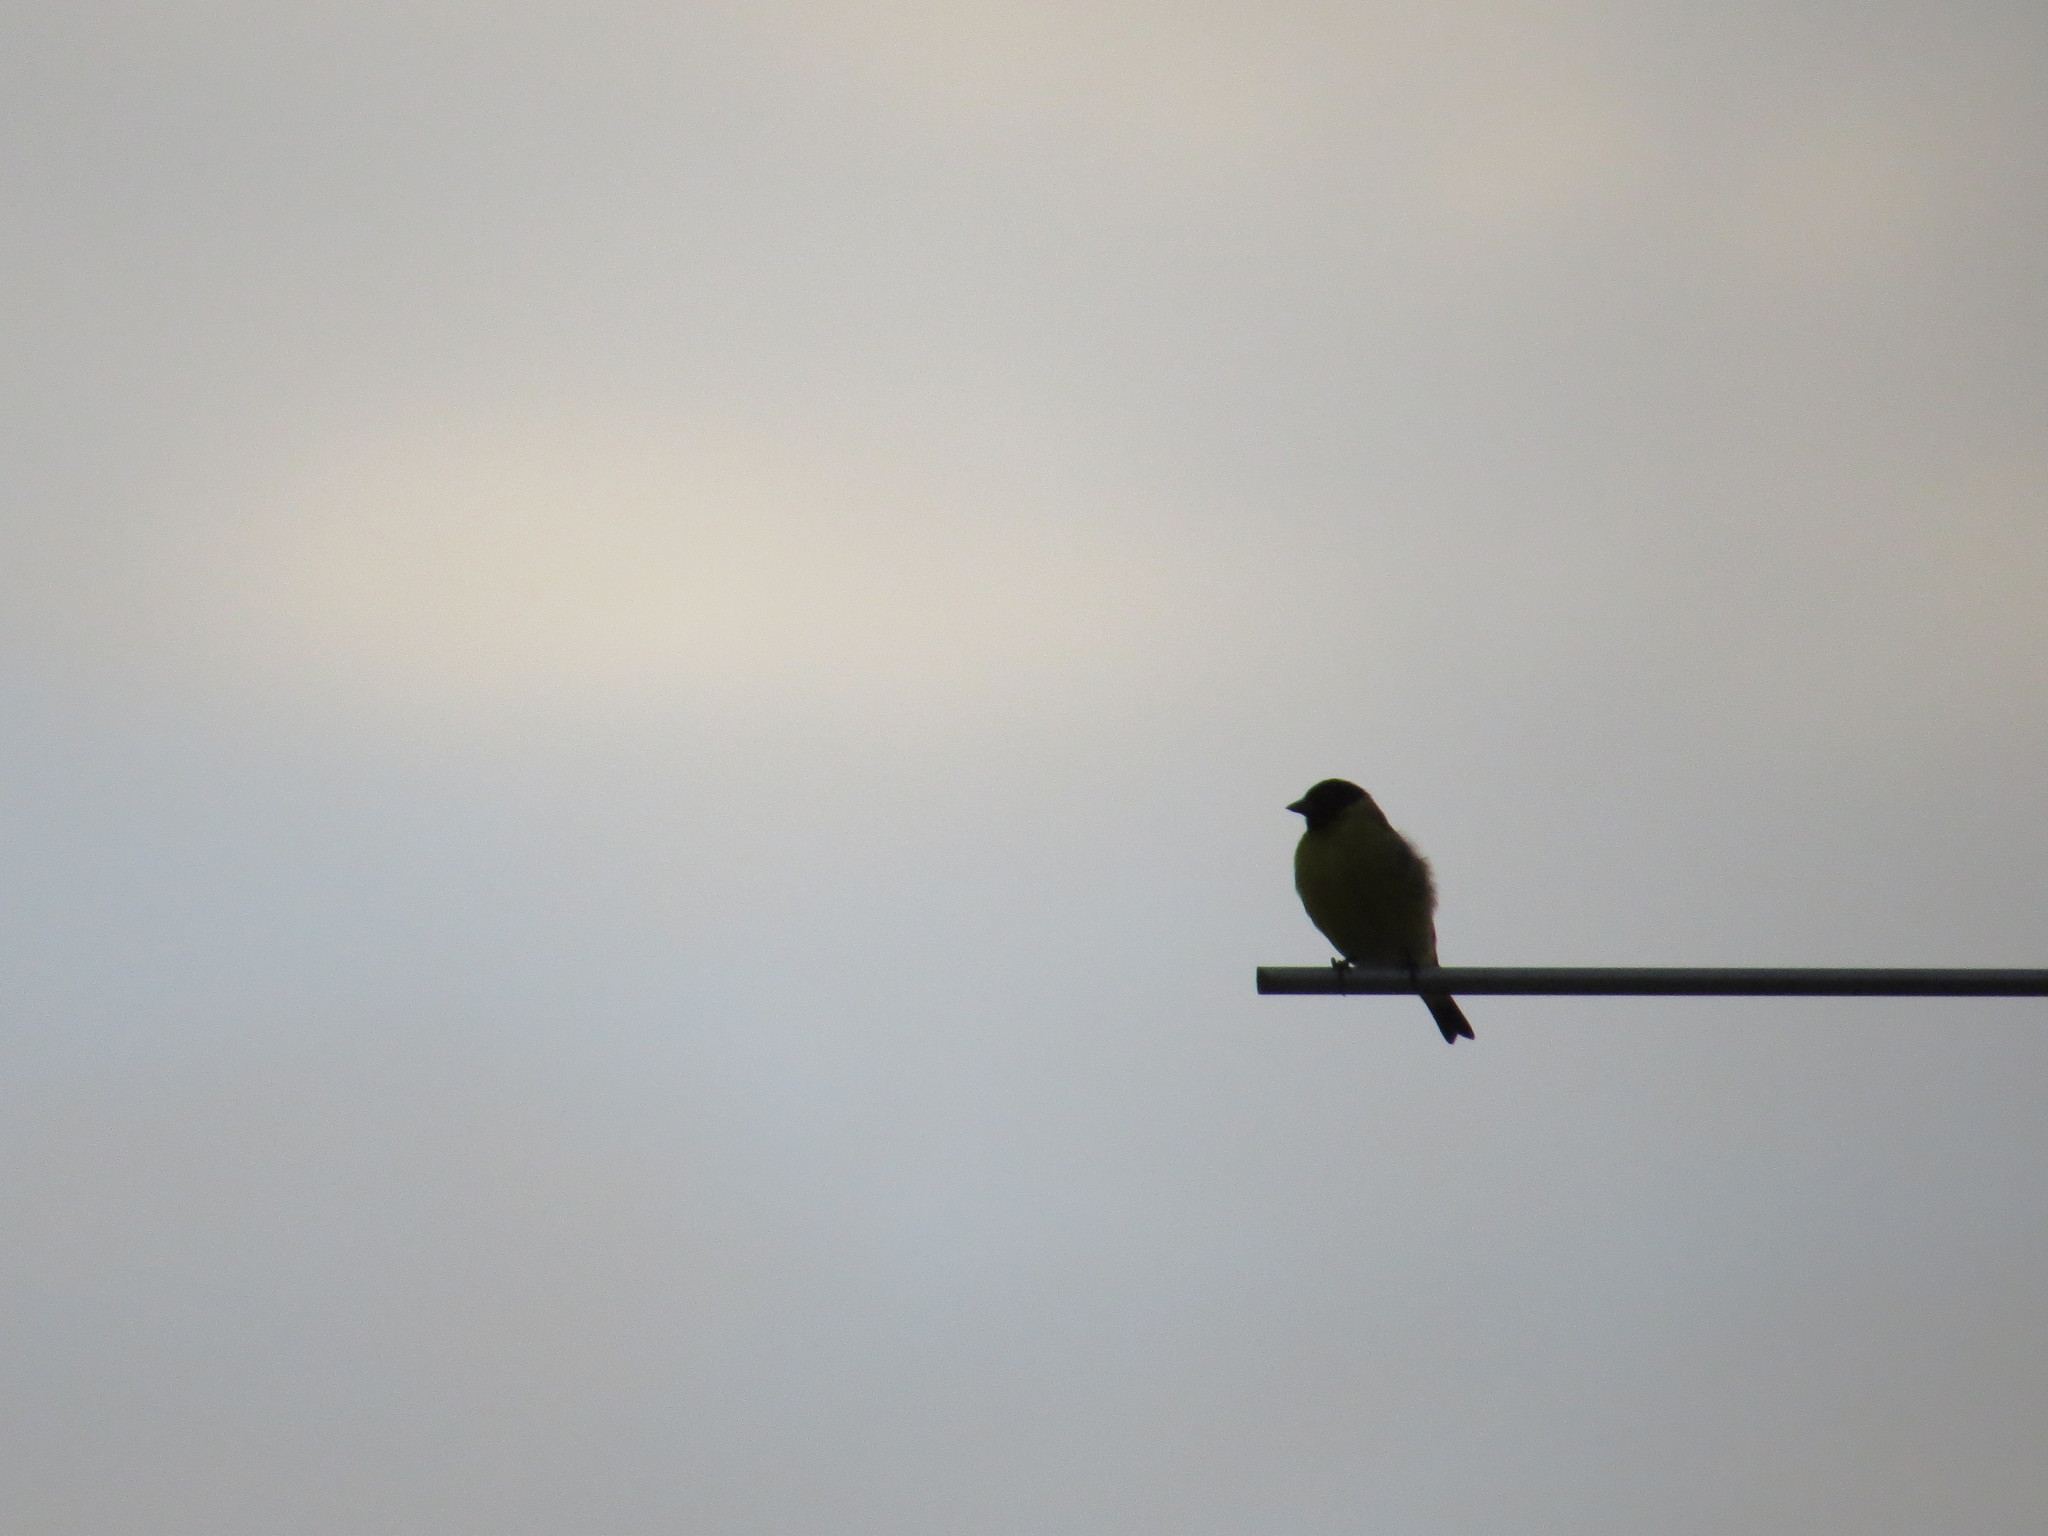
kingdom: Animalia
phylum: Chordata
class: Aves
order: Passeriformes
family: Fringillidae
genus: Spinus
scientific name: Spinus magellanicus
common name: Hooded siskin
